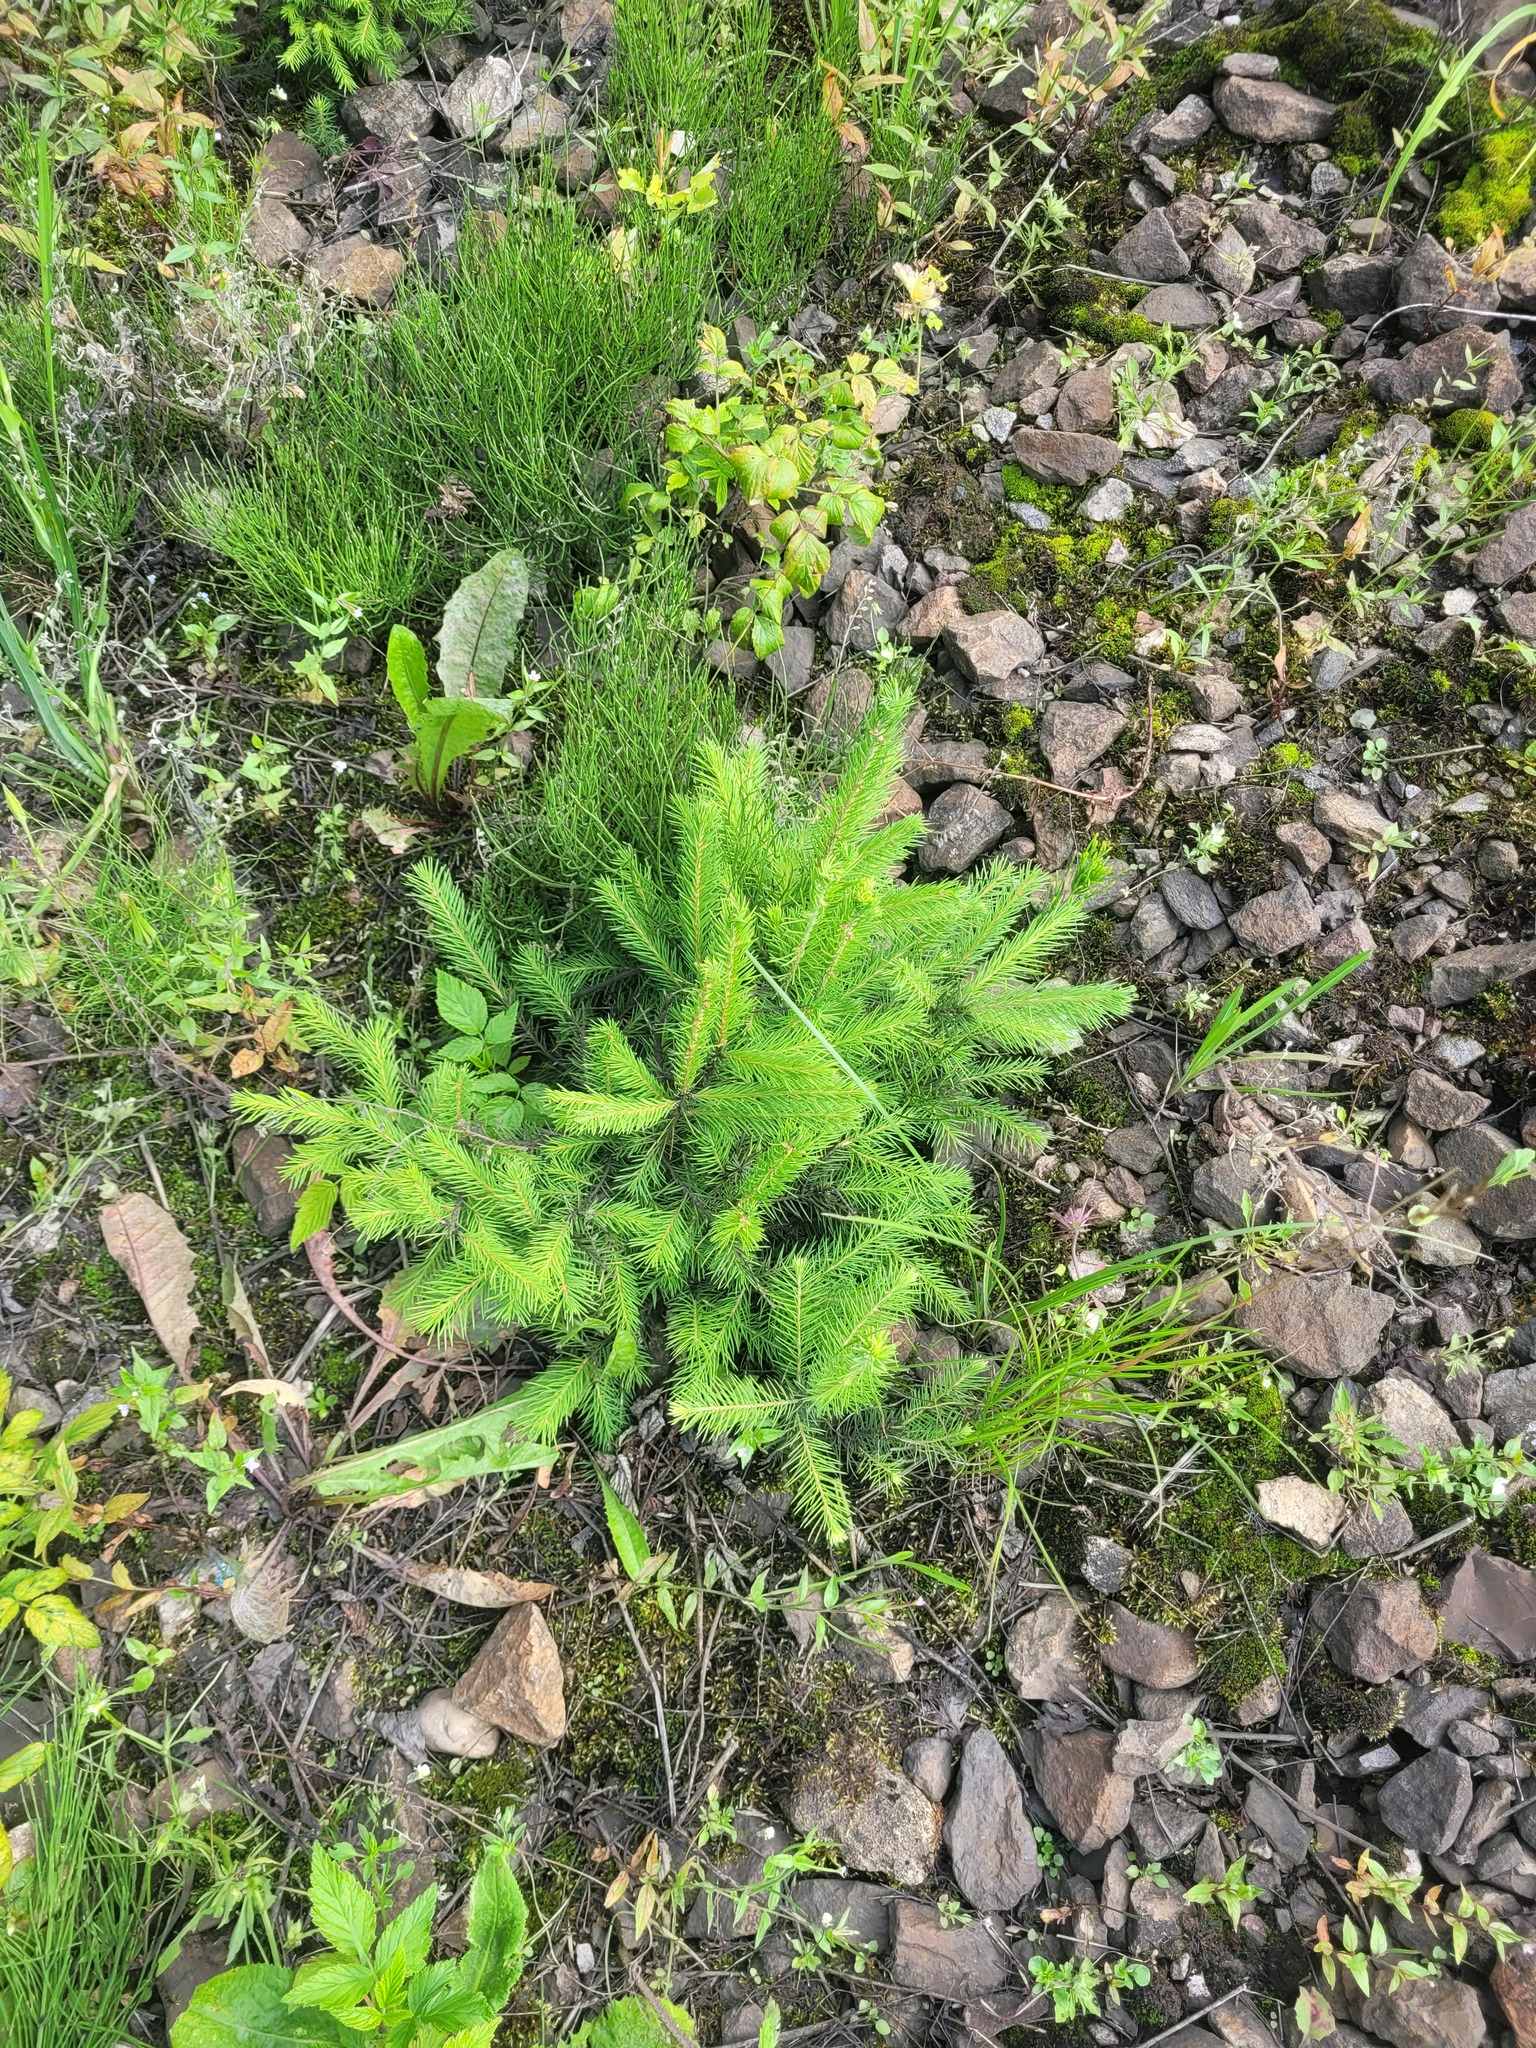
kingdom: Plantae
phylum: Tracheophyta
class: Pinopsida
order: Pinales
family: Pinaceae
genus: Picea
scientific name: Picea abies
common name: Norway spruce
